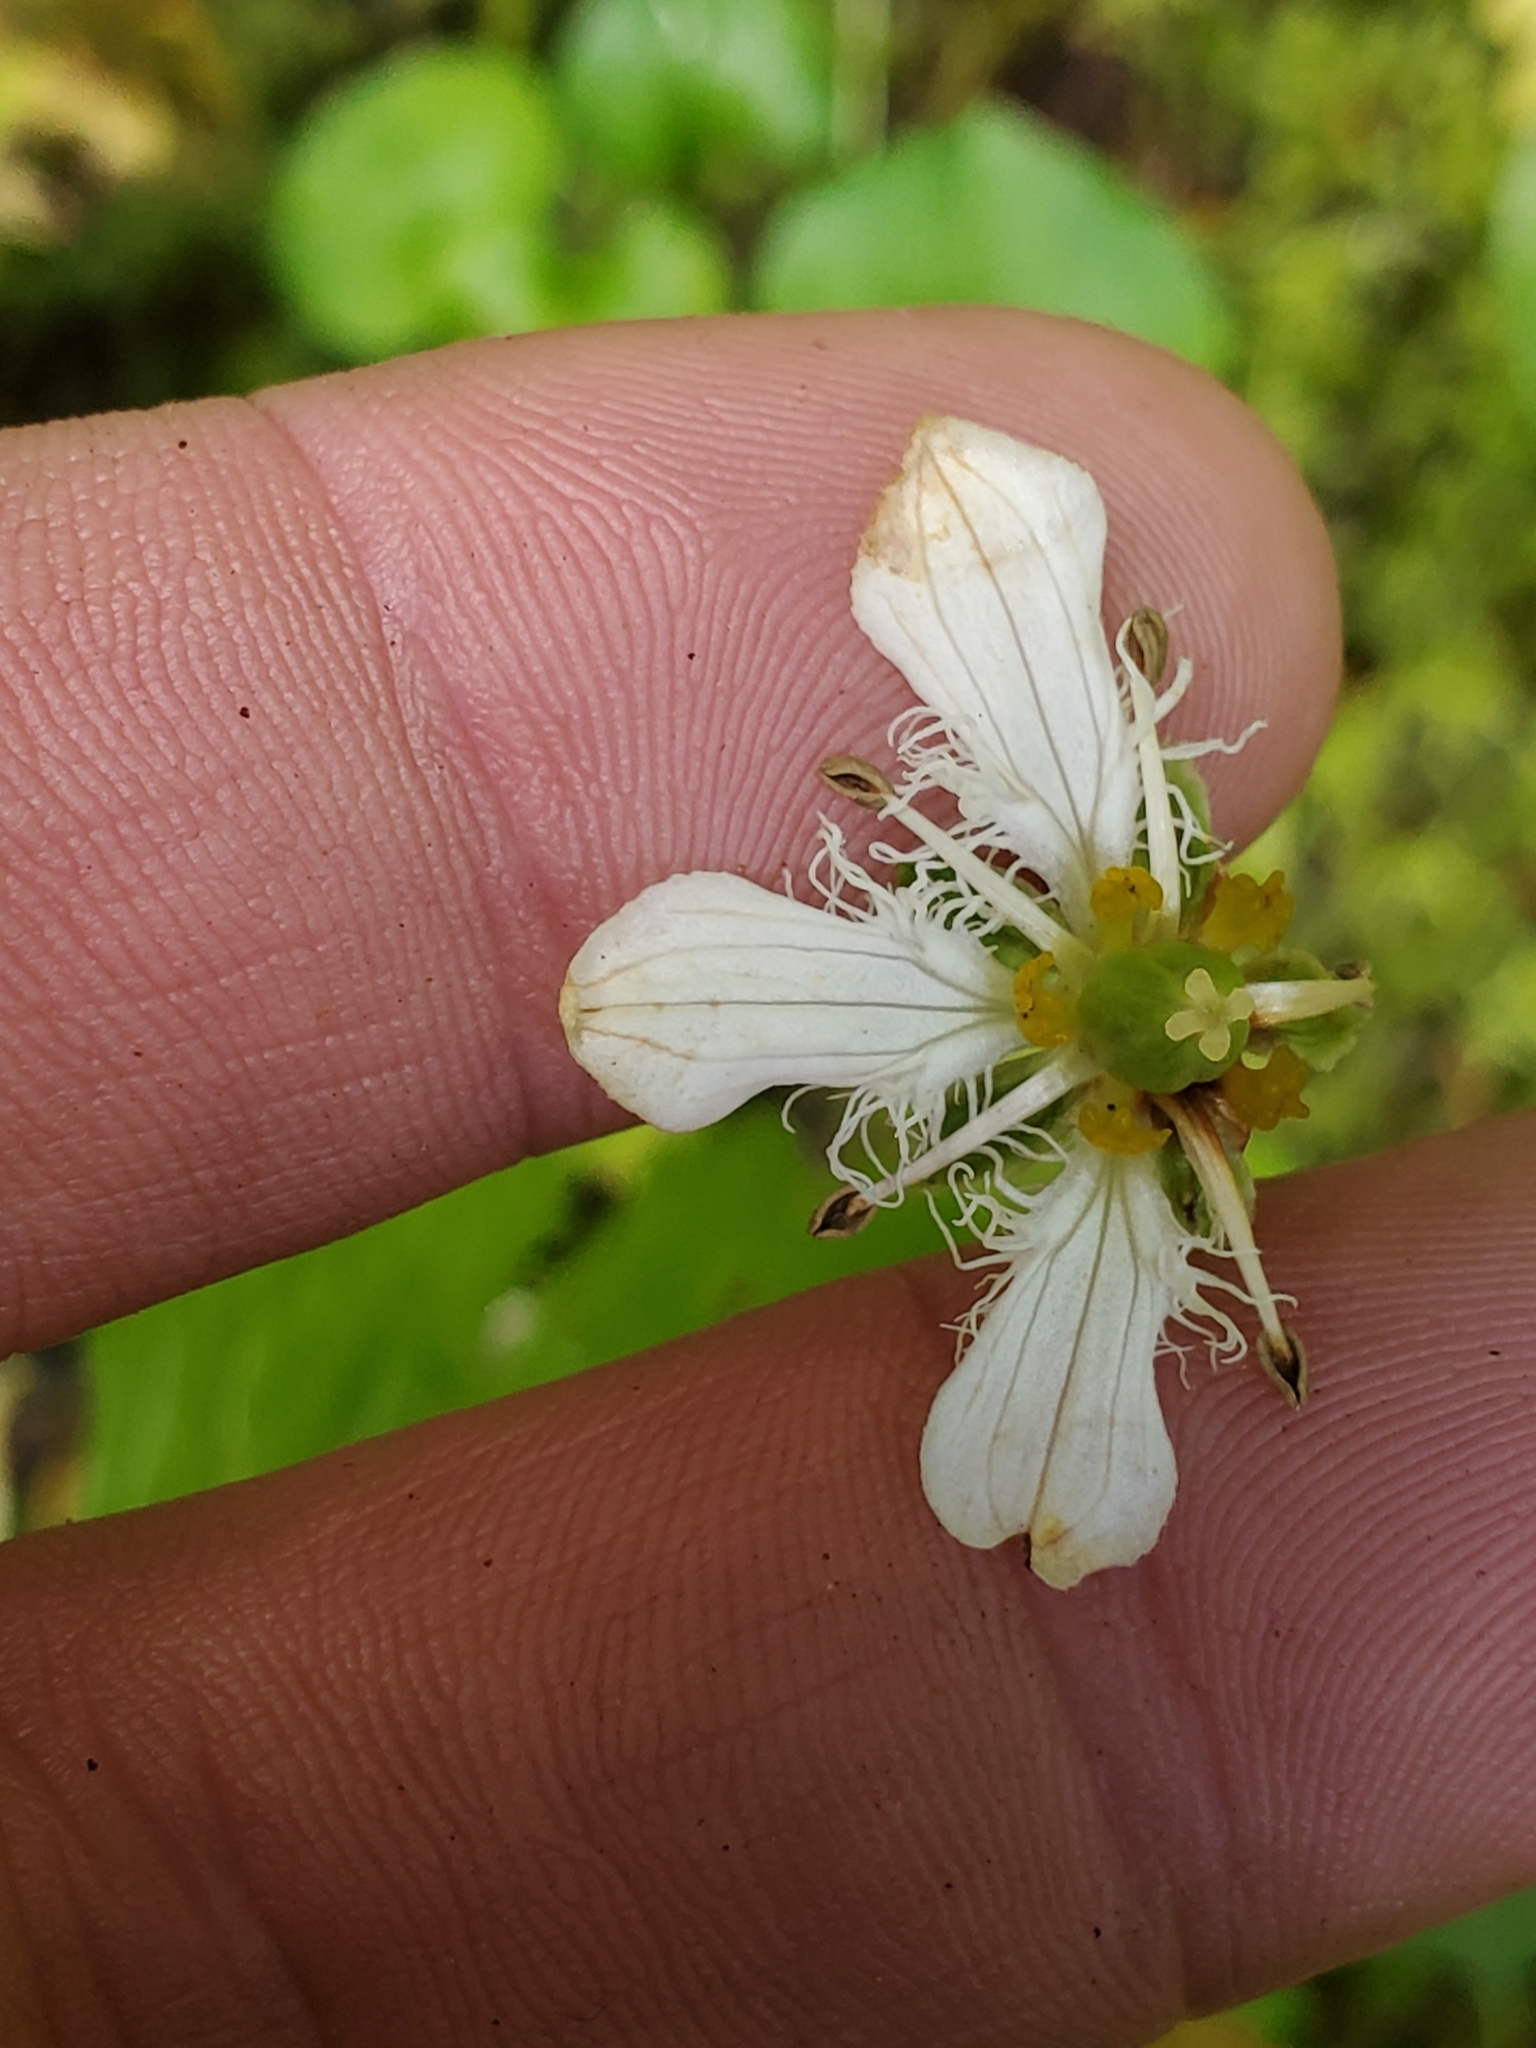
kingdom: Plantae
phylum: Tracheophyta
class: Magnoliopsida
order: Celastrales
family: Parnassiaceae
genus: Parnassia
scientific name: Parnassia fimbriata
